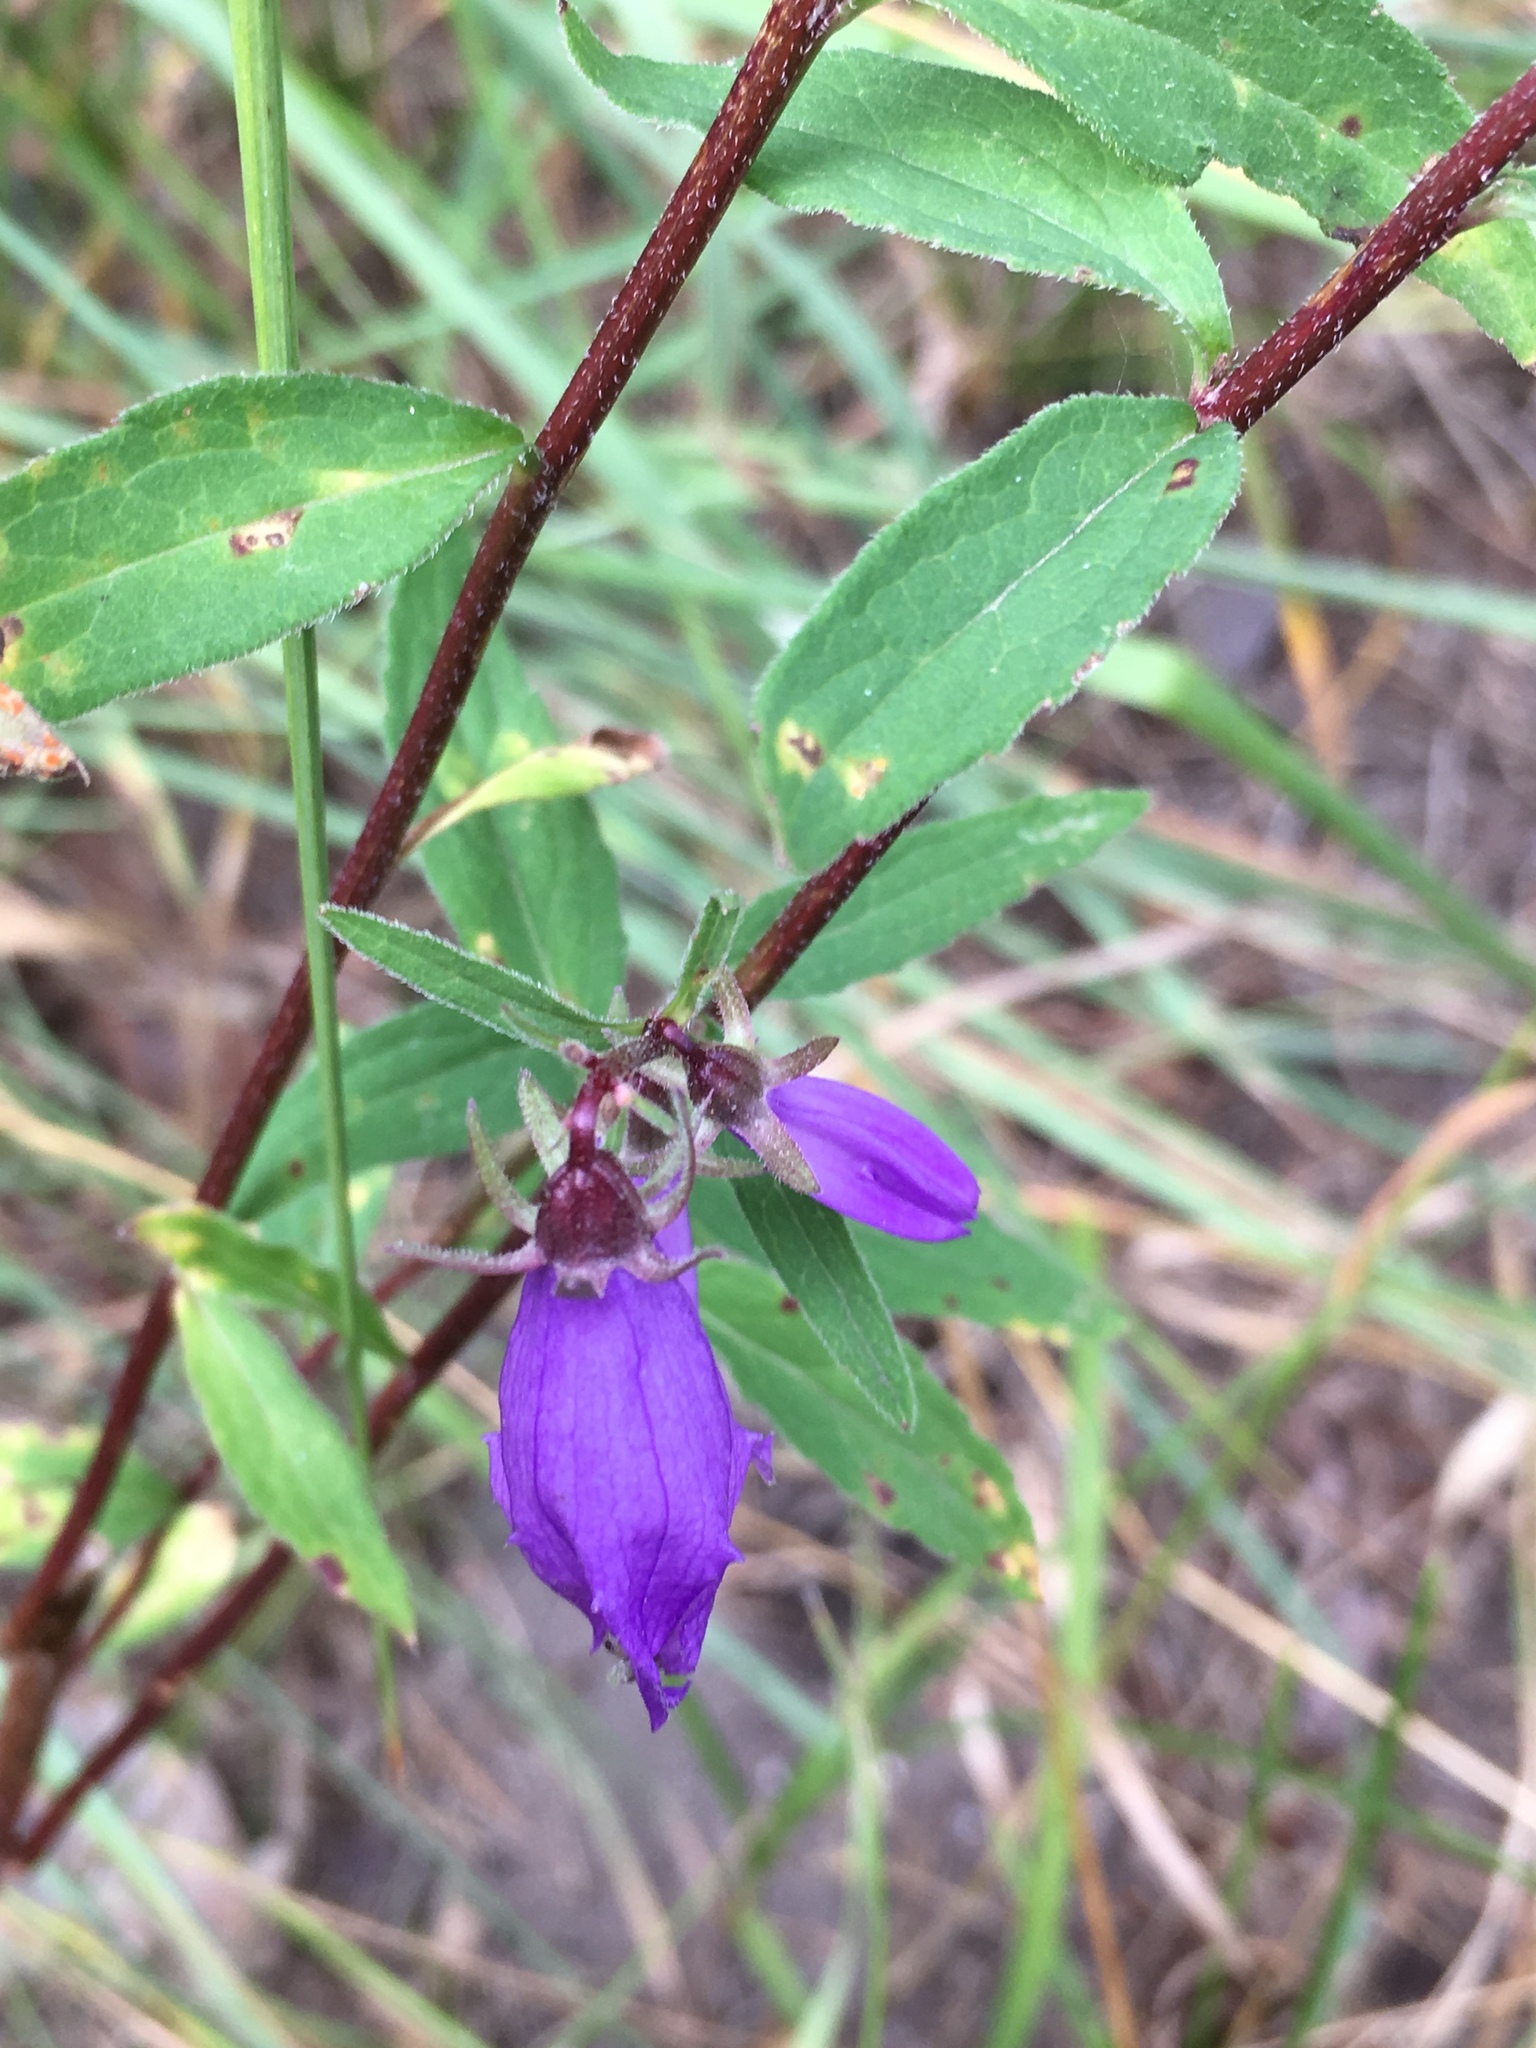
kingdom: Plantae
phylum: Tracheophyta
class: Magnoliopsida
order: Asterales
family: Campanulaceae
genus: Campanula
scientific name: Campanula trachelium
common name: Nettle-leaved bellflower
